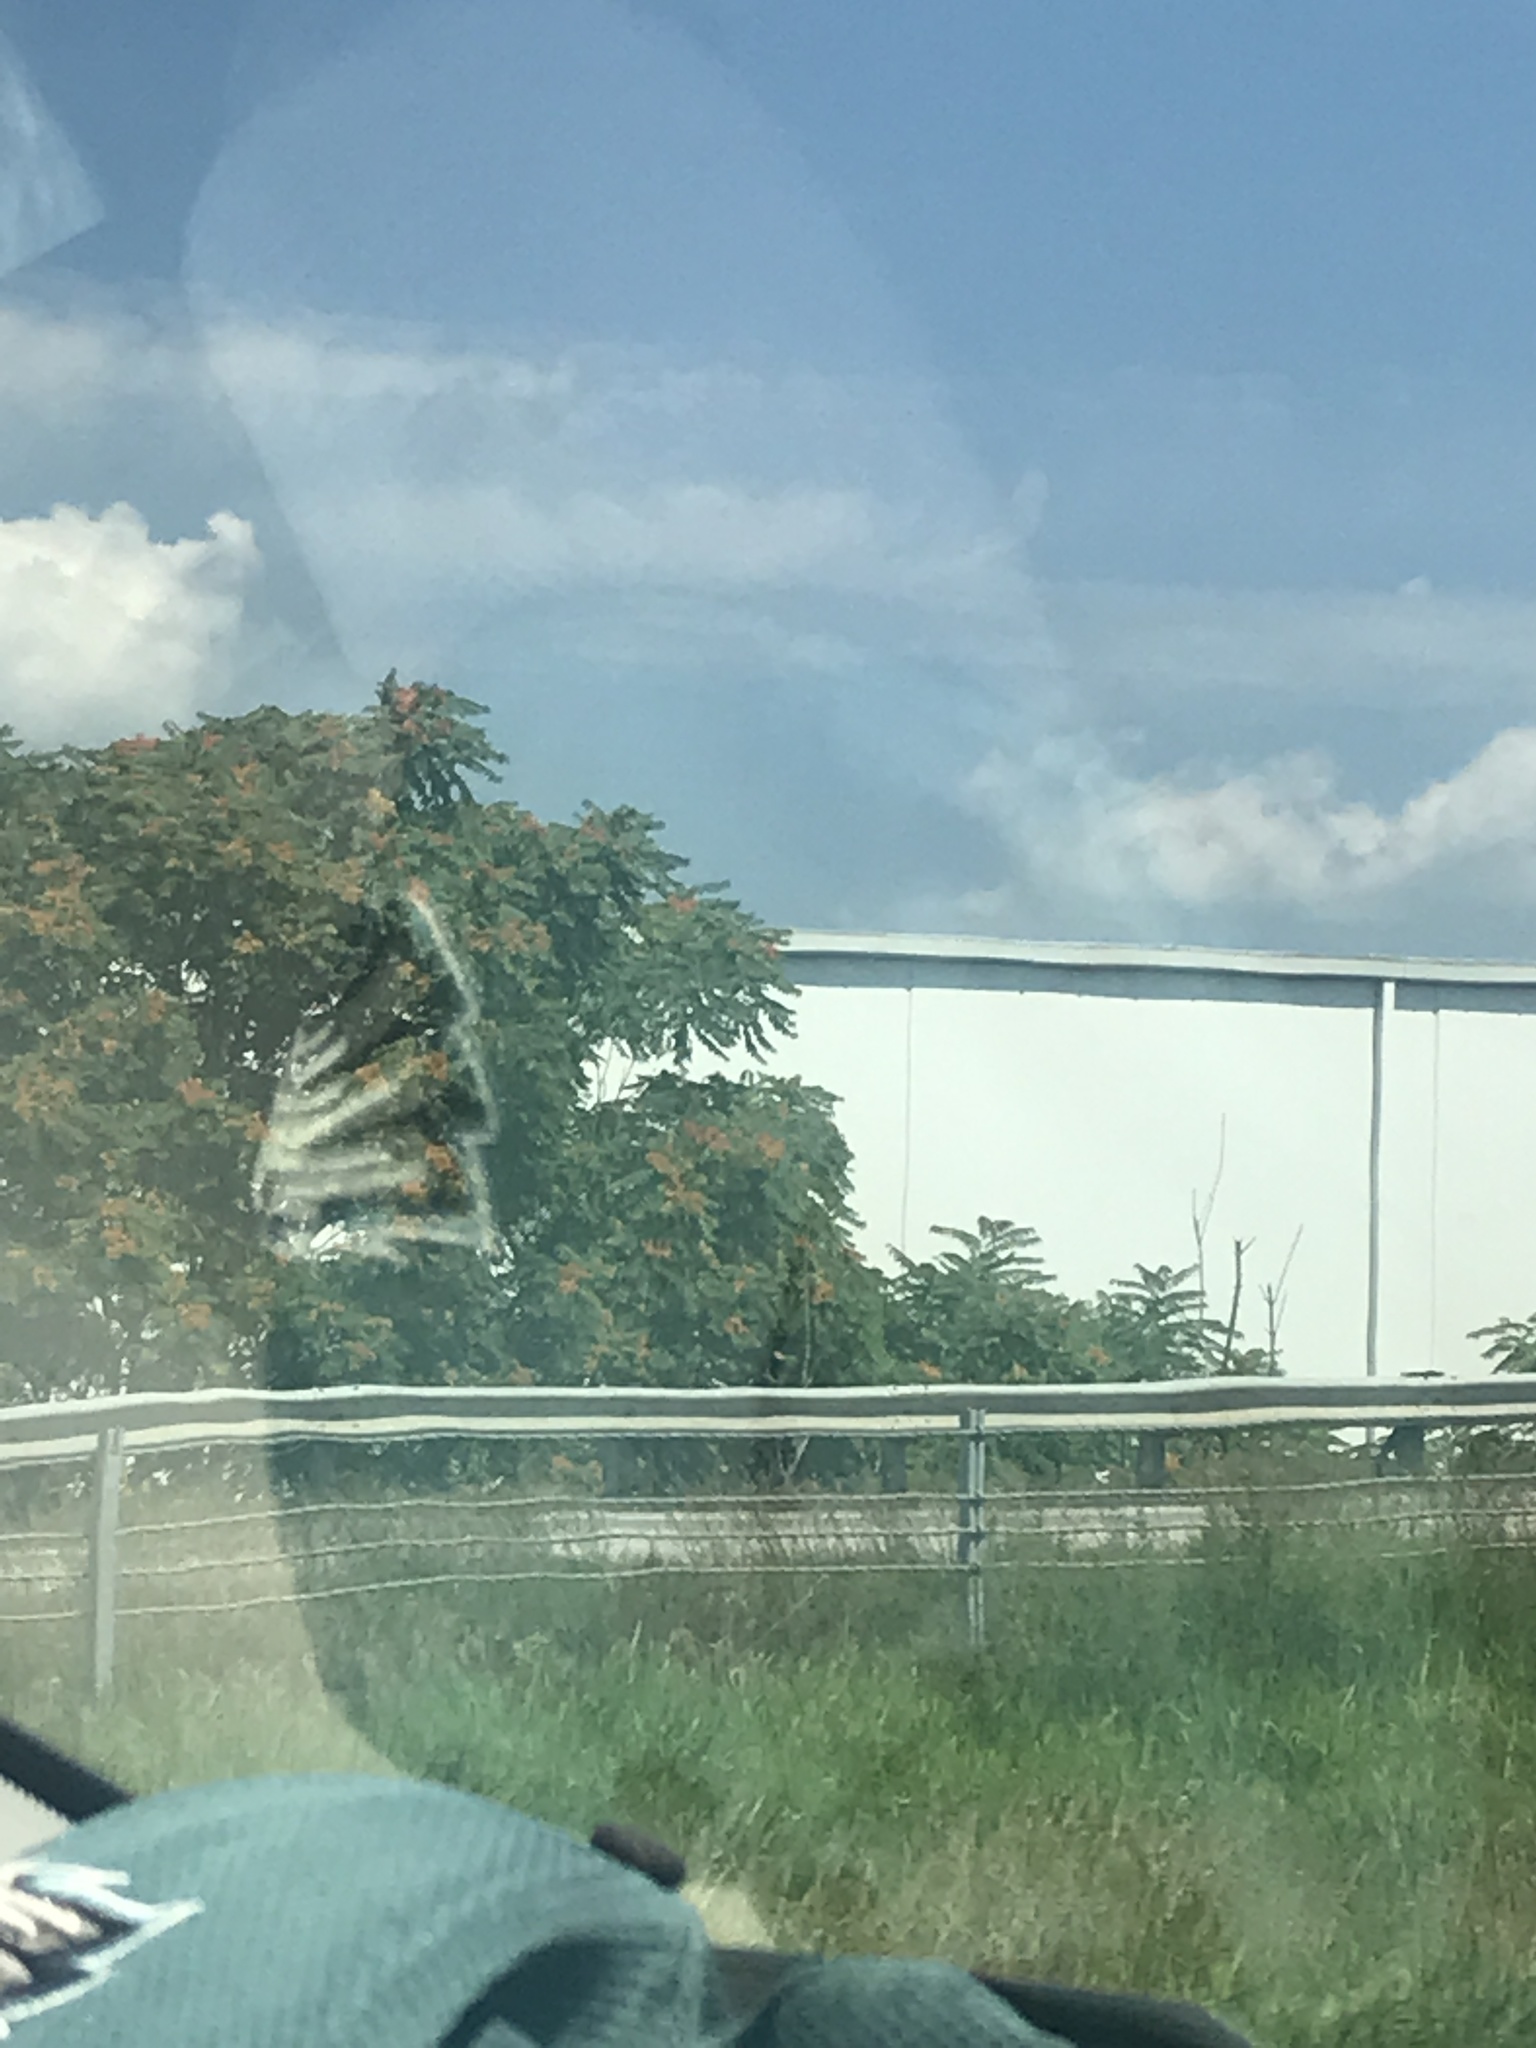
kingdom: Plantae
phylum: Tracheophyta
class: Magnoliopsida
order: Sapindales
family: Simaroubaceae
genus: Ailanthus
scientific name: Ailanthus altissima
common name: Tree-of-heaven
